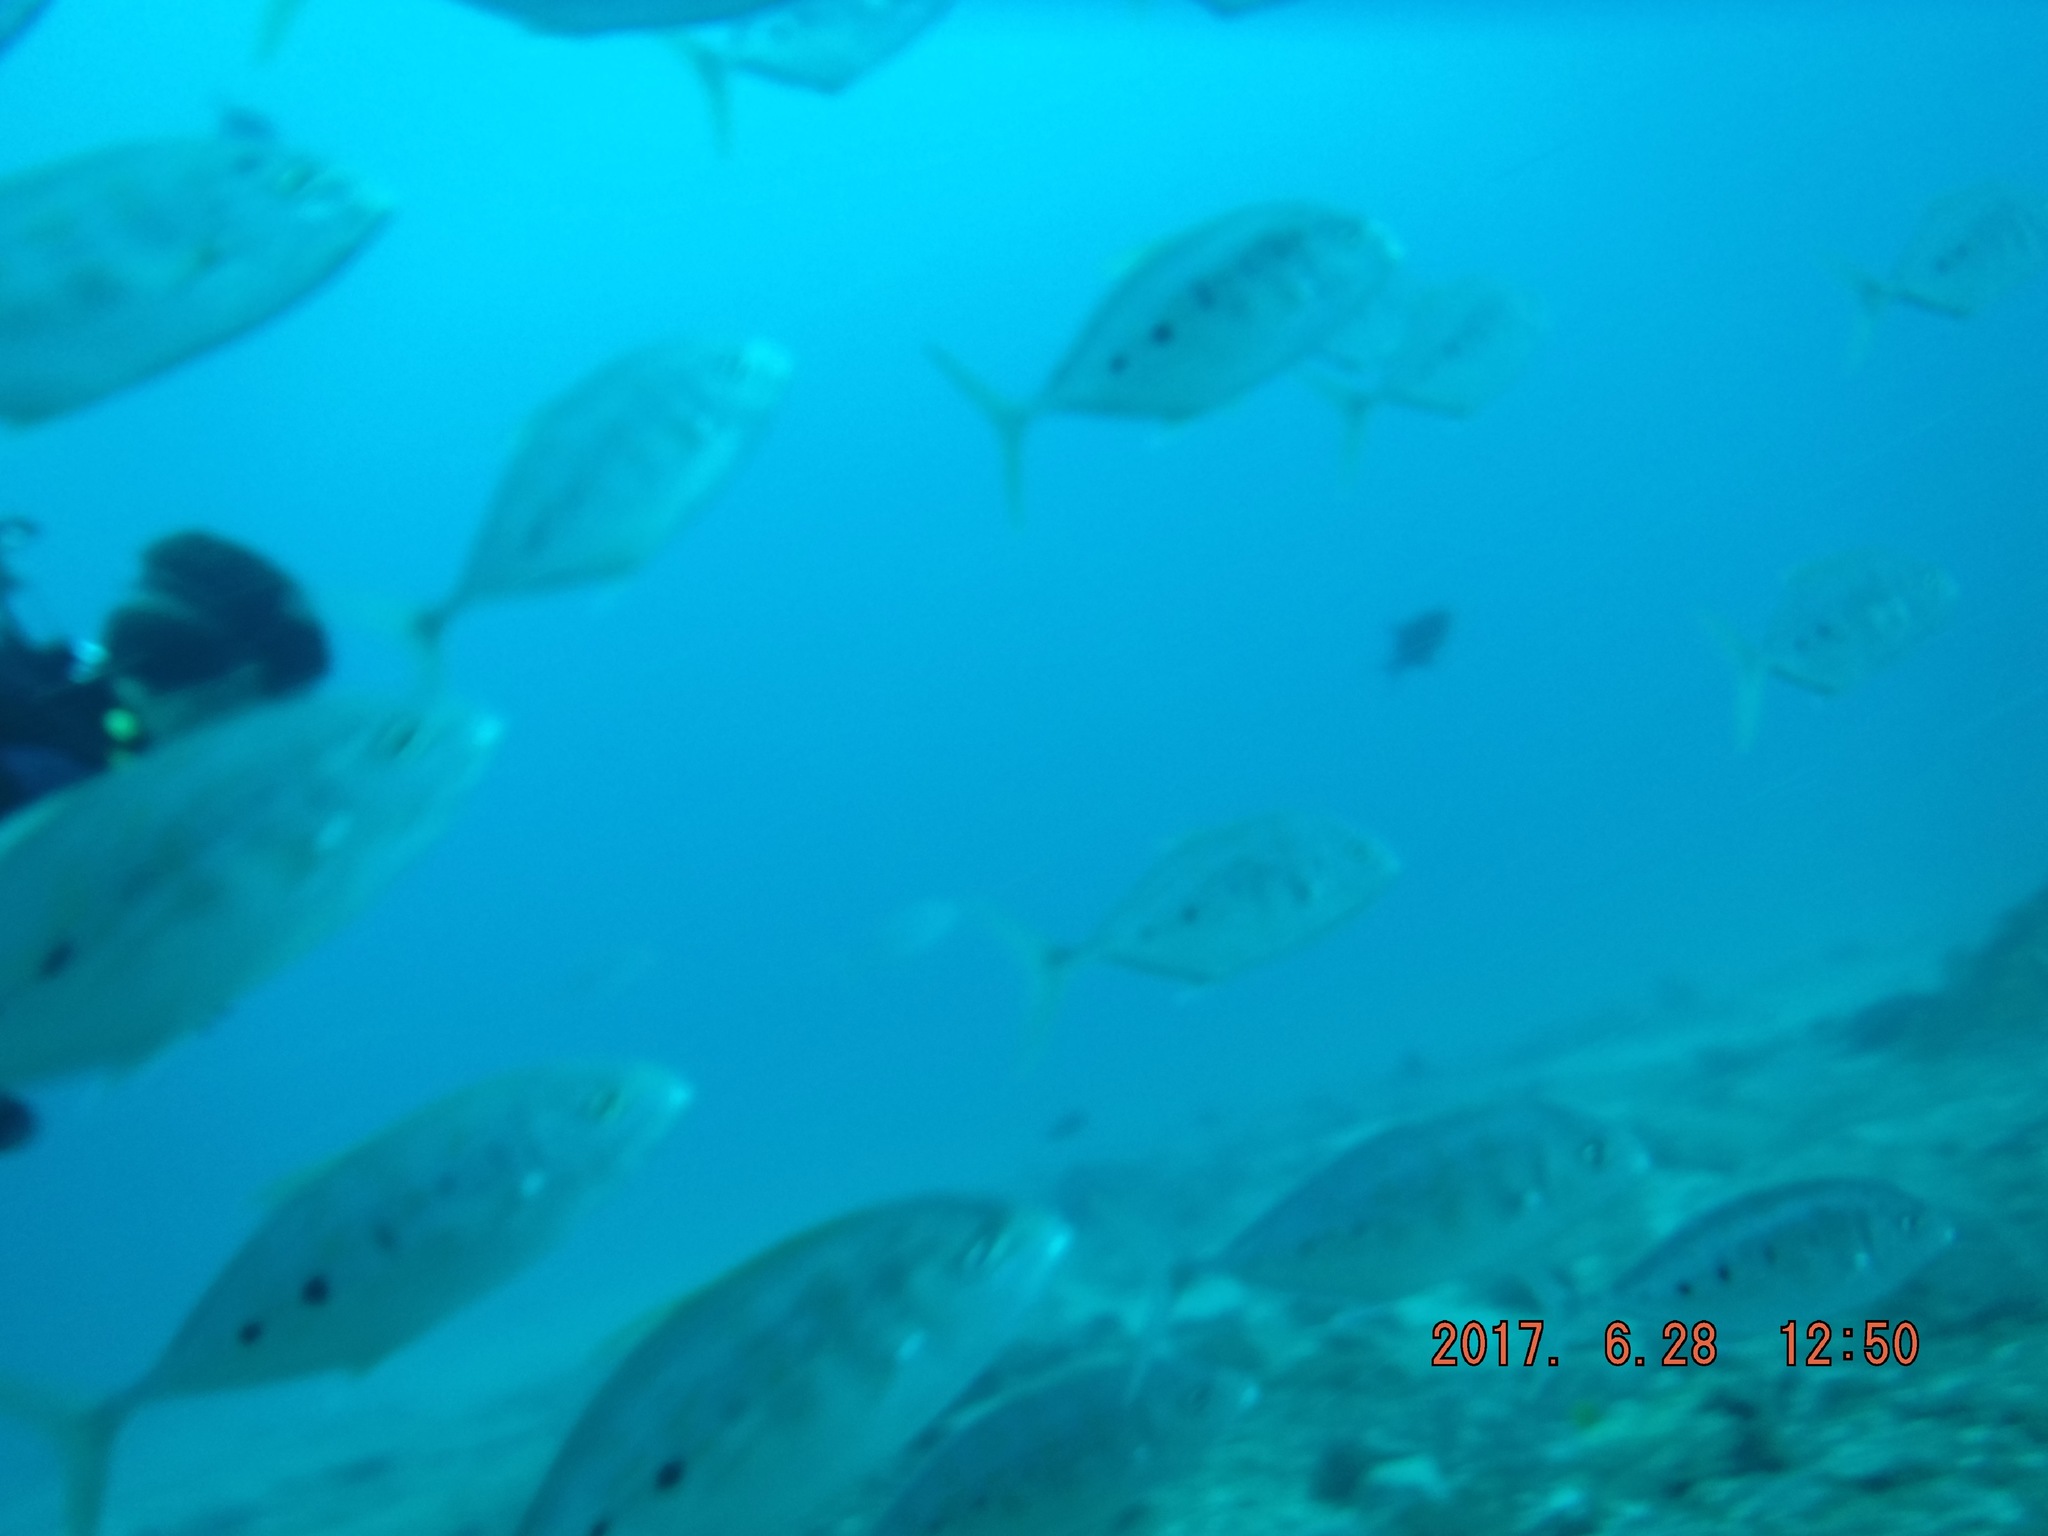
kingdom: Animalia
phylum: Chordata
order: Perciformes
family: Carangidae
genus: Carangoides
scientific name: Carangoides Turrum fulvoguttatum
